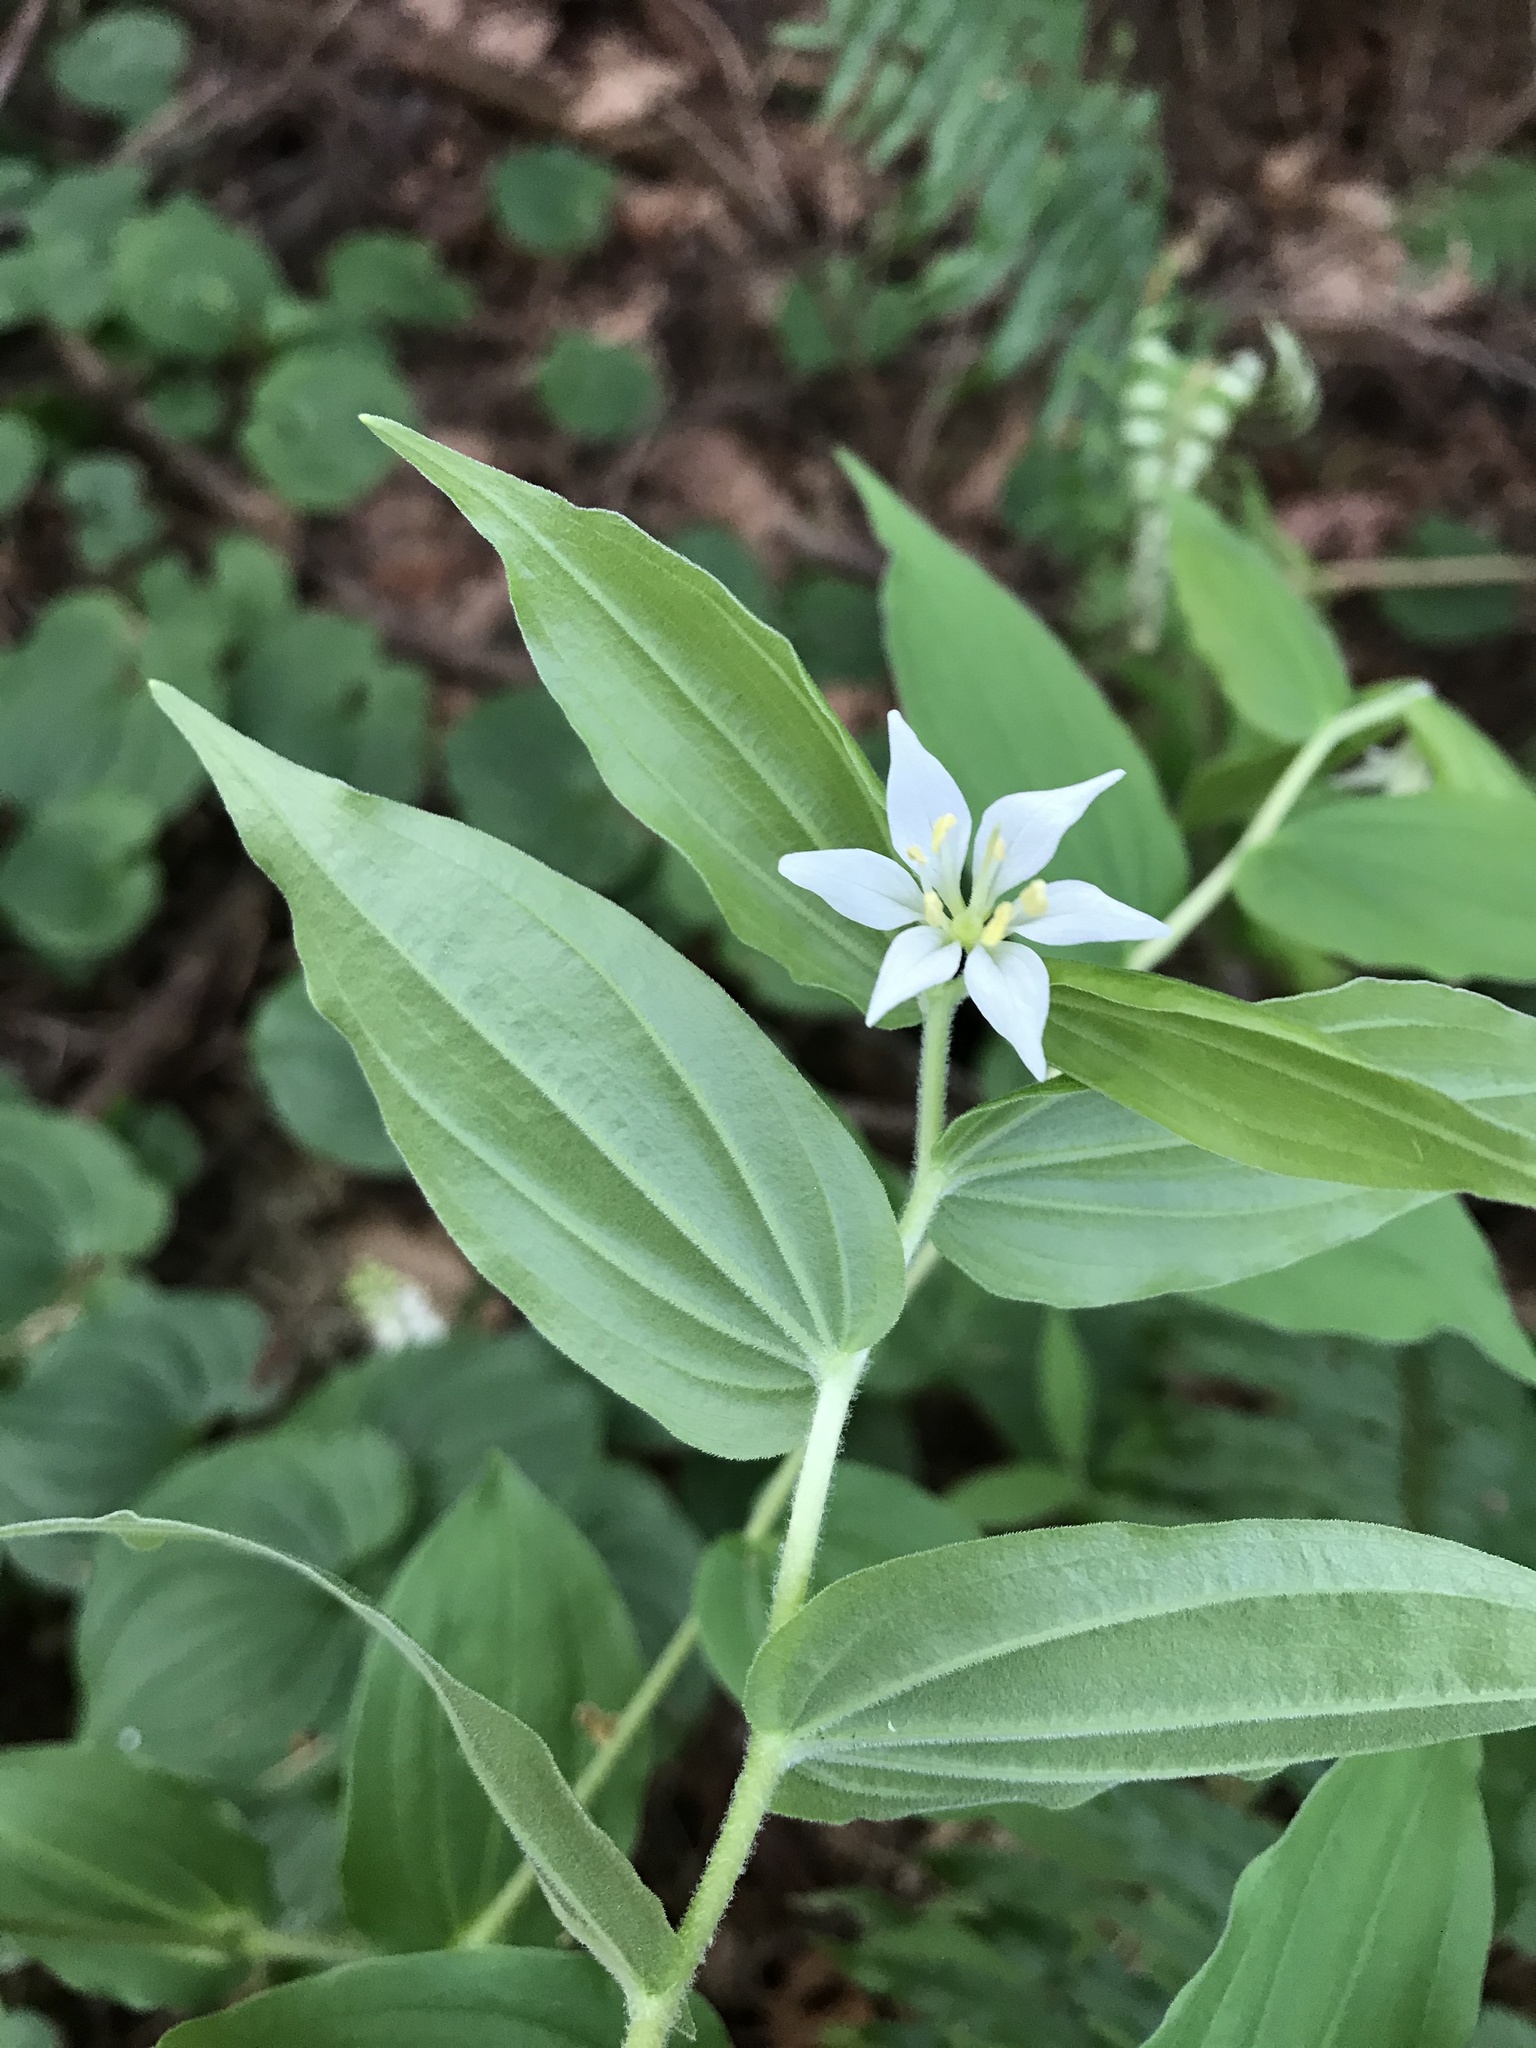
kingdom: Plantae
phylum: Tracheophyta
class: Liliopsida
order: Liliales
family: Liliaceae
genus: Prosartes
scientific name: Prosartes hookeri
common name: Fairy-bells
